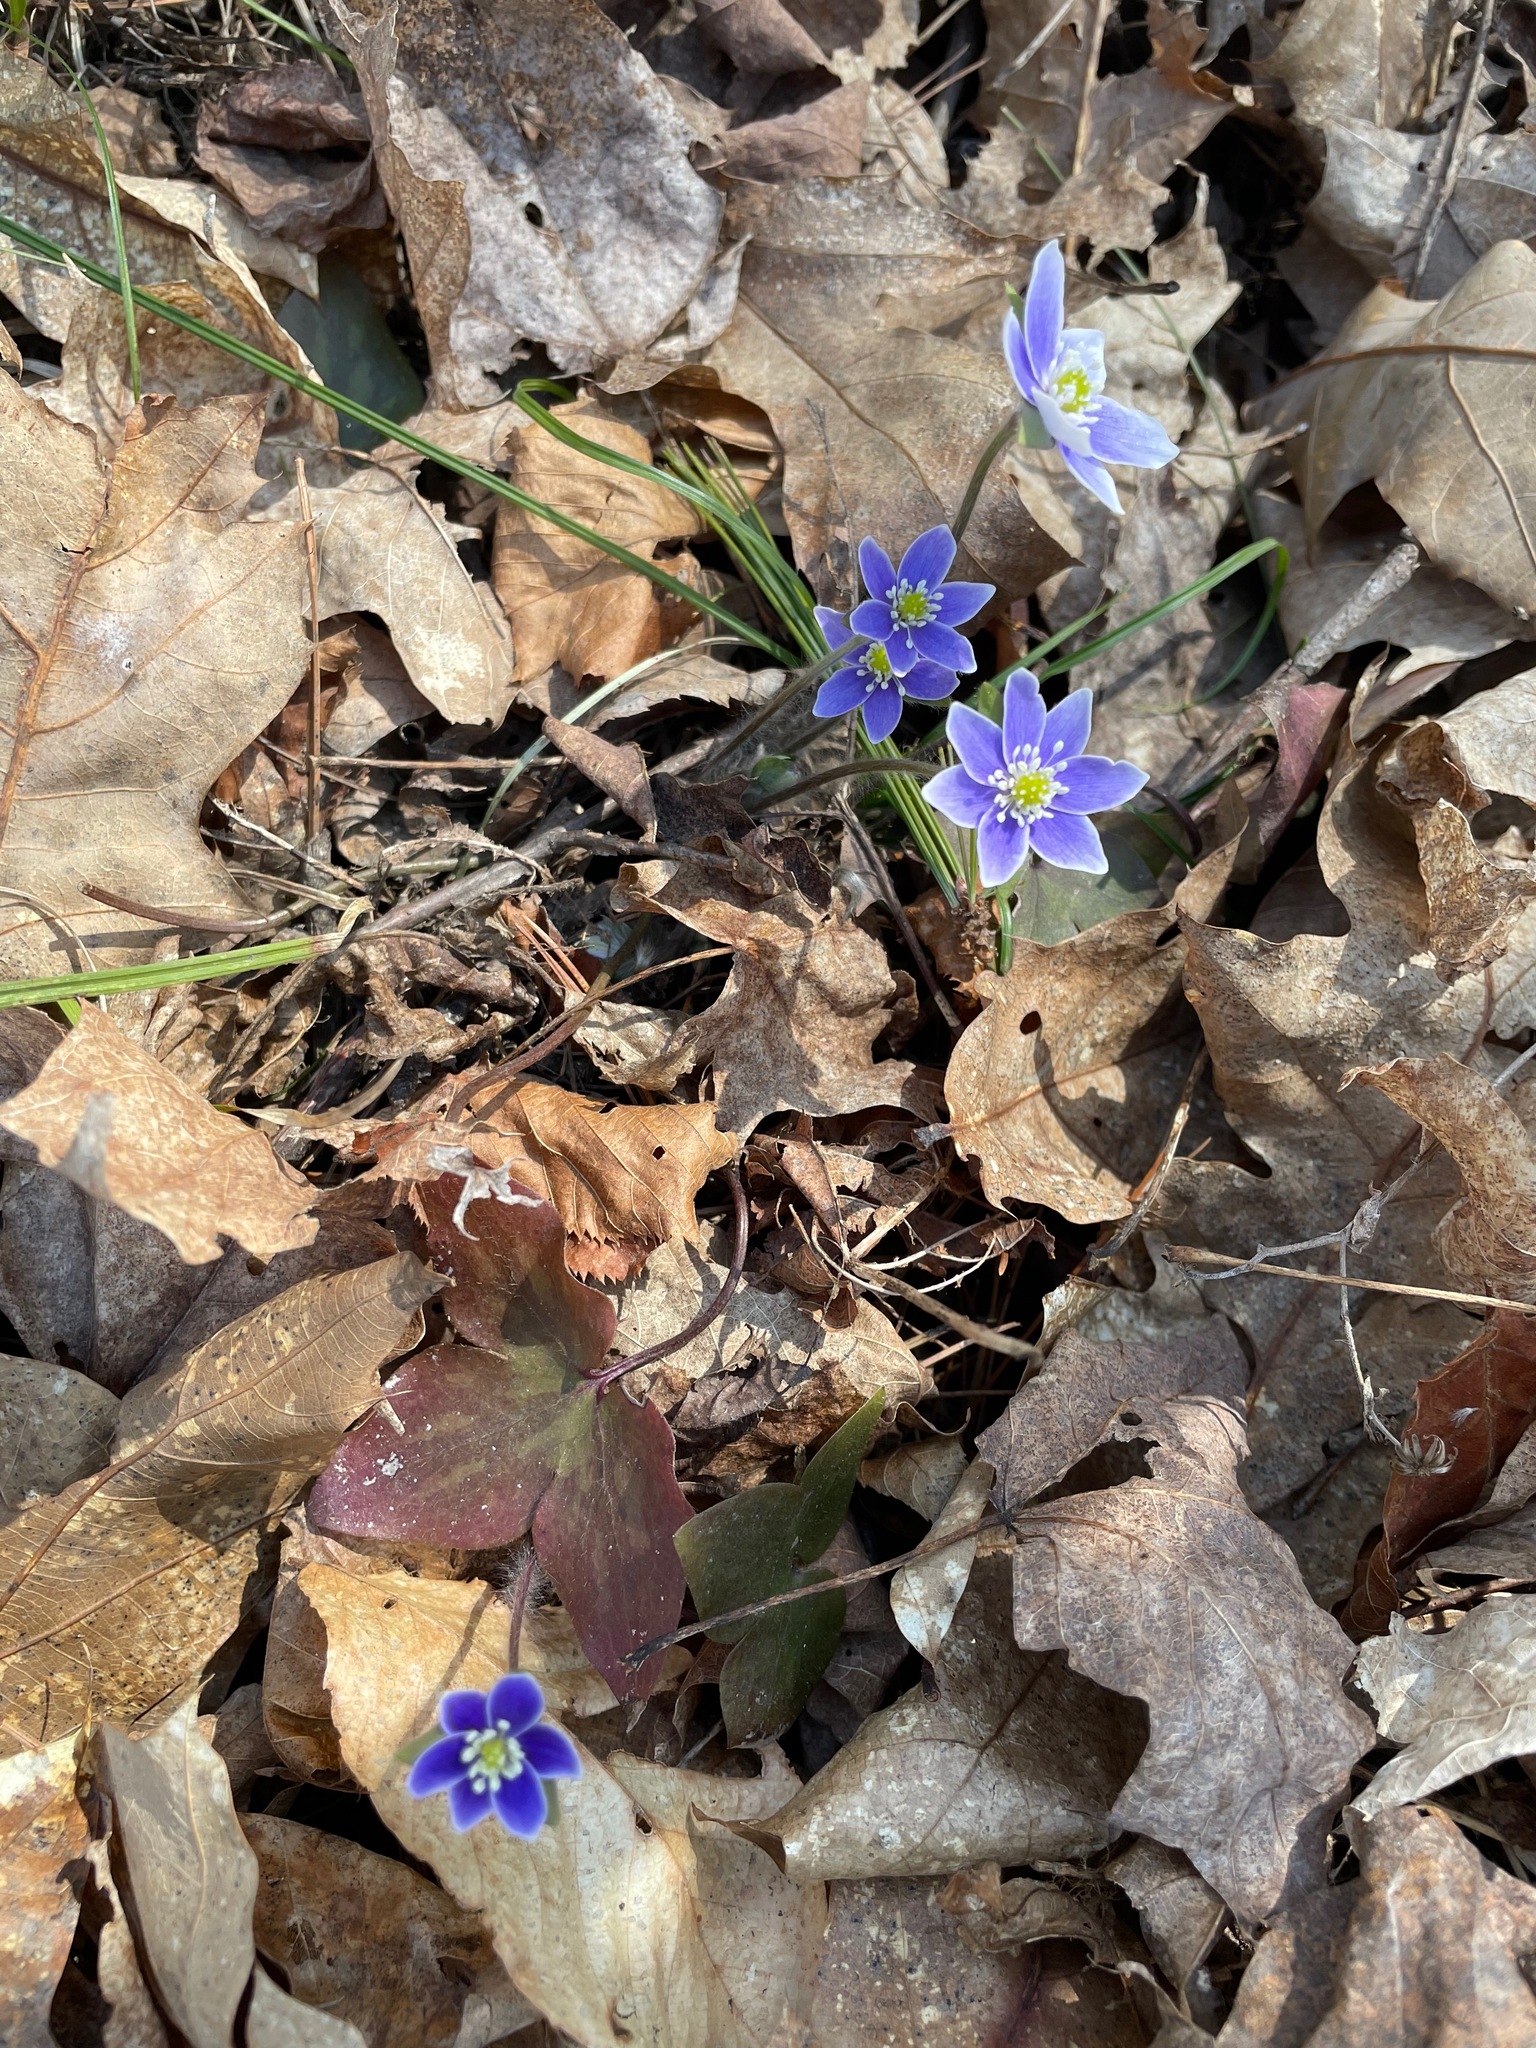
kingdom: Plantae
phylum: Tracheophyta
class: Magnoliopsida
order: Ranunculales
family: Ranunculaceae
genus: Hepatica
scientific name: Hepatica acutiloba
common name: Sharp-lobed hepatica
